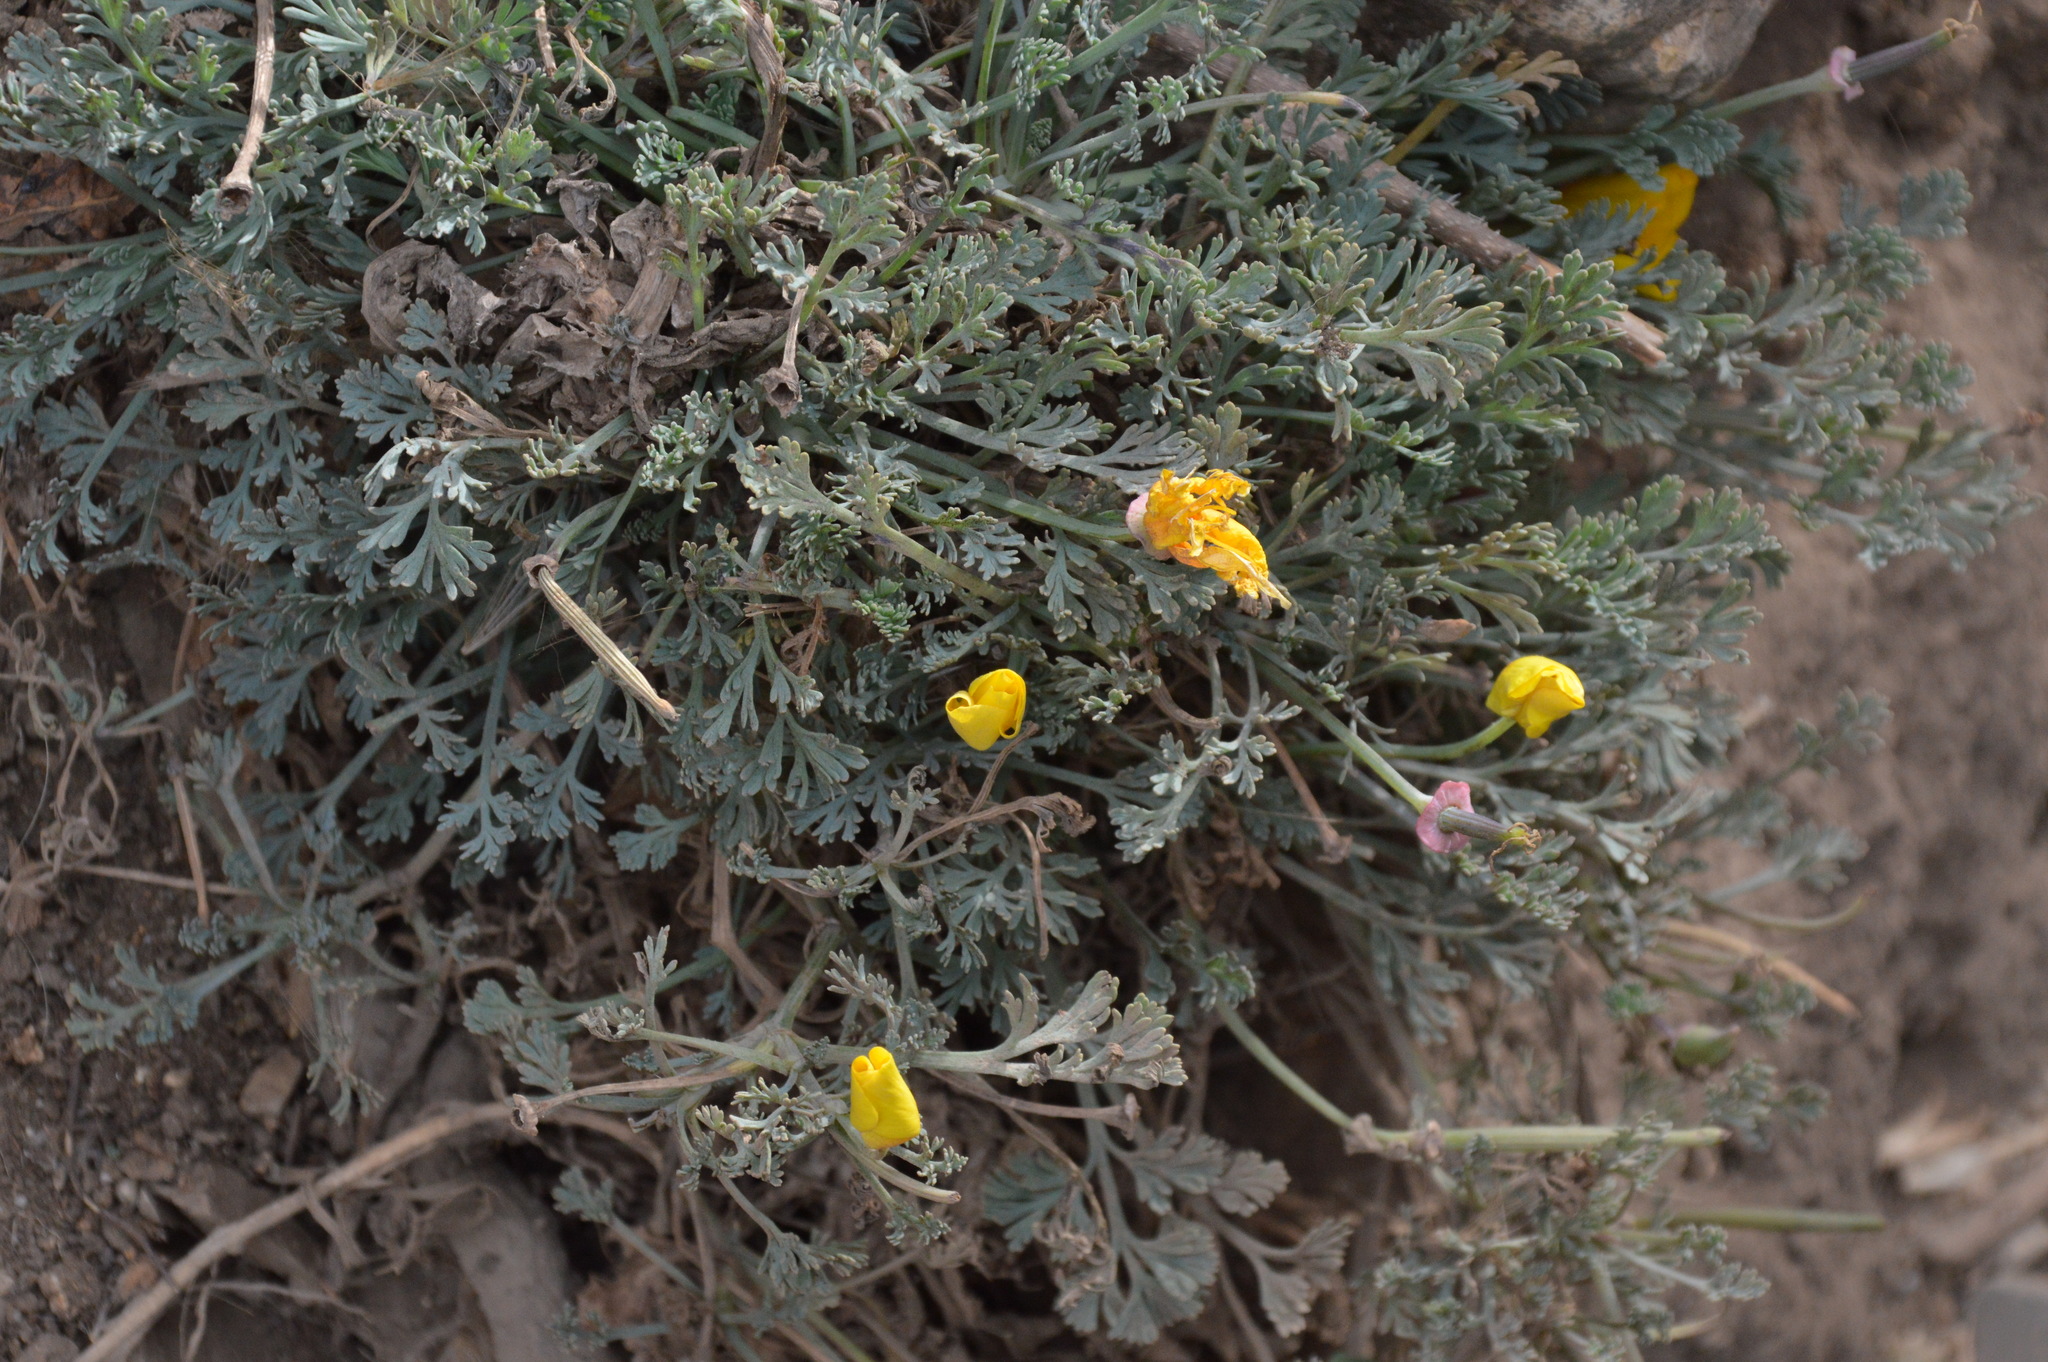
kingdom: Plantae
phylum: Tracheophyta
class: Magnoliopsida
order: Ranunculales
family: Papaveraceae
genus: Eschscholzia
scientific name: Eschscholzia californica
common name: California poppy
